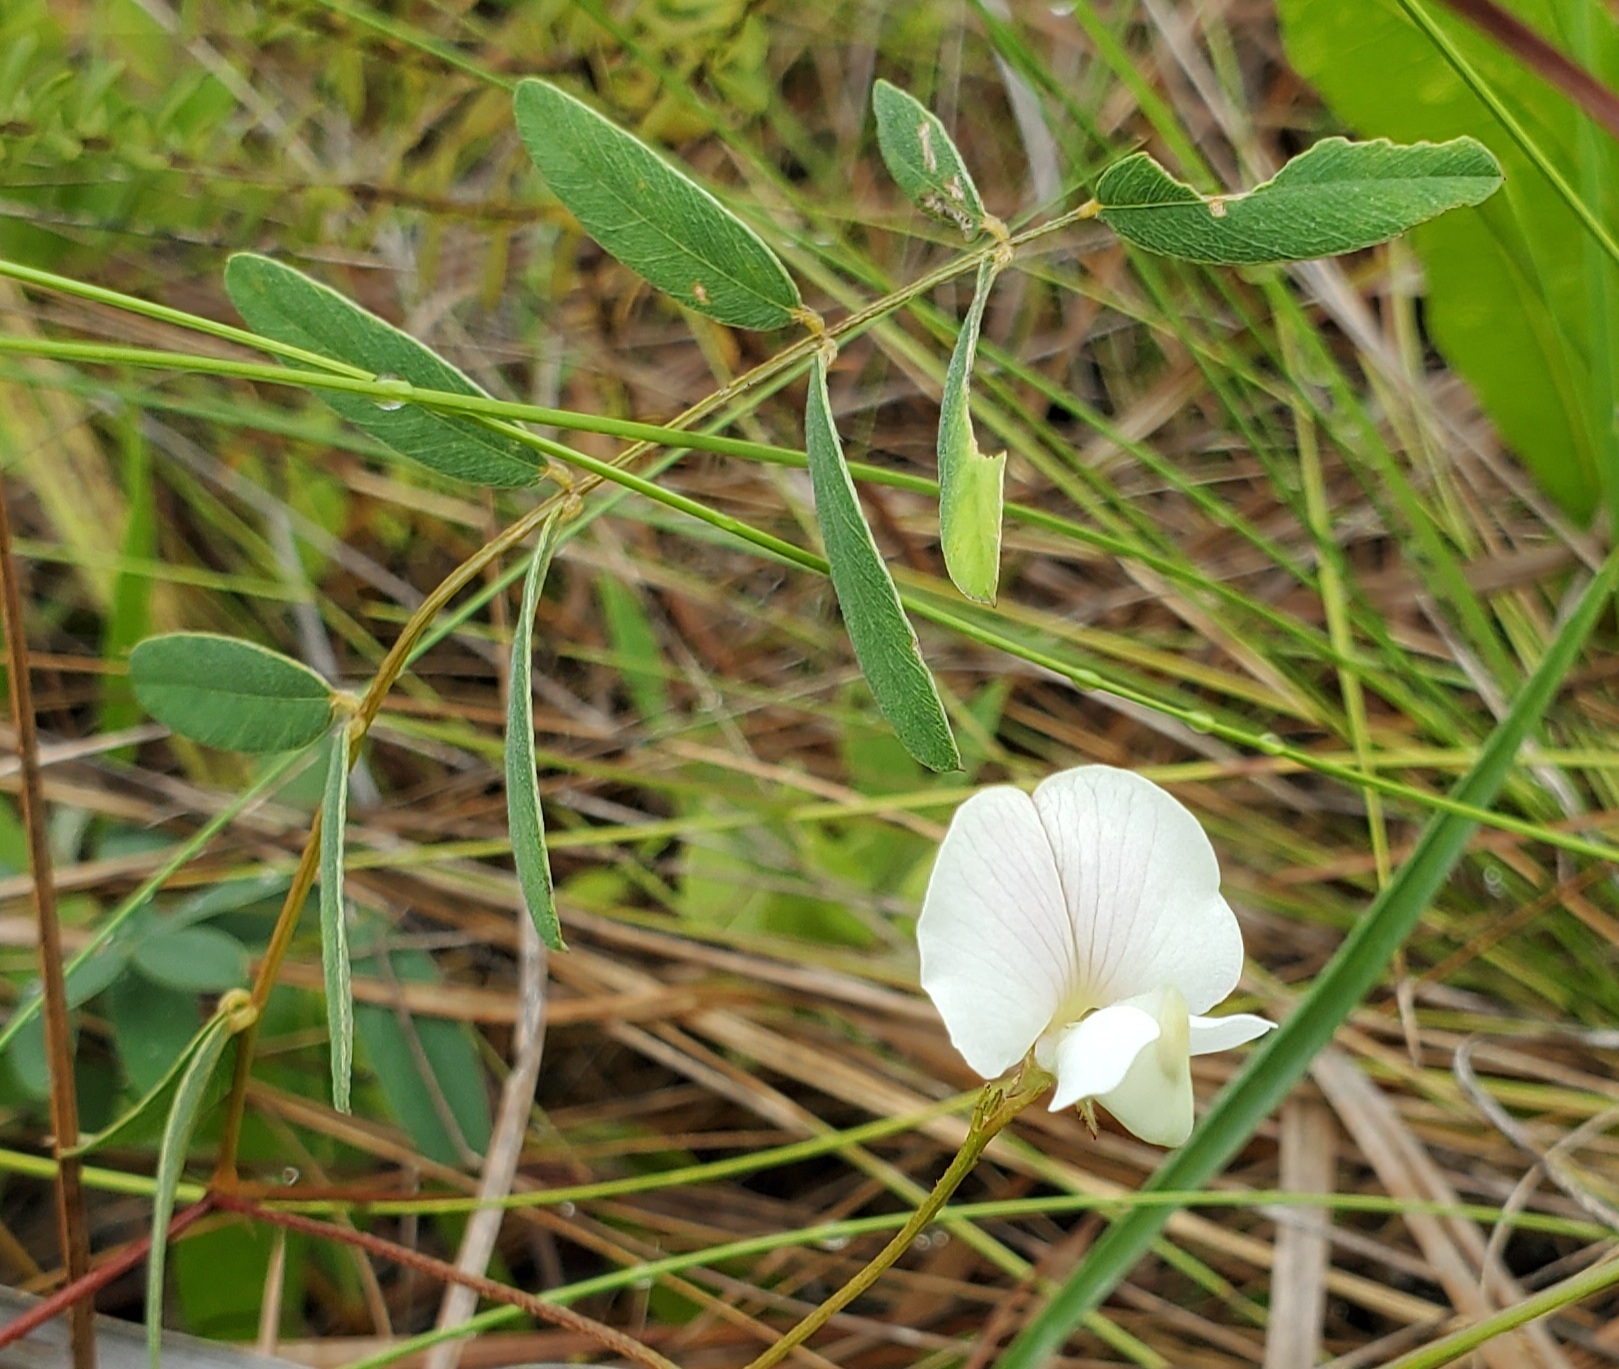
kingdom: Plantae
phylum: Tracheophyta
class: Magnoliopsida
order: Fabales
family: Fabaceae
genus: Galactia
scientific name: Galactia elliottii
